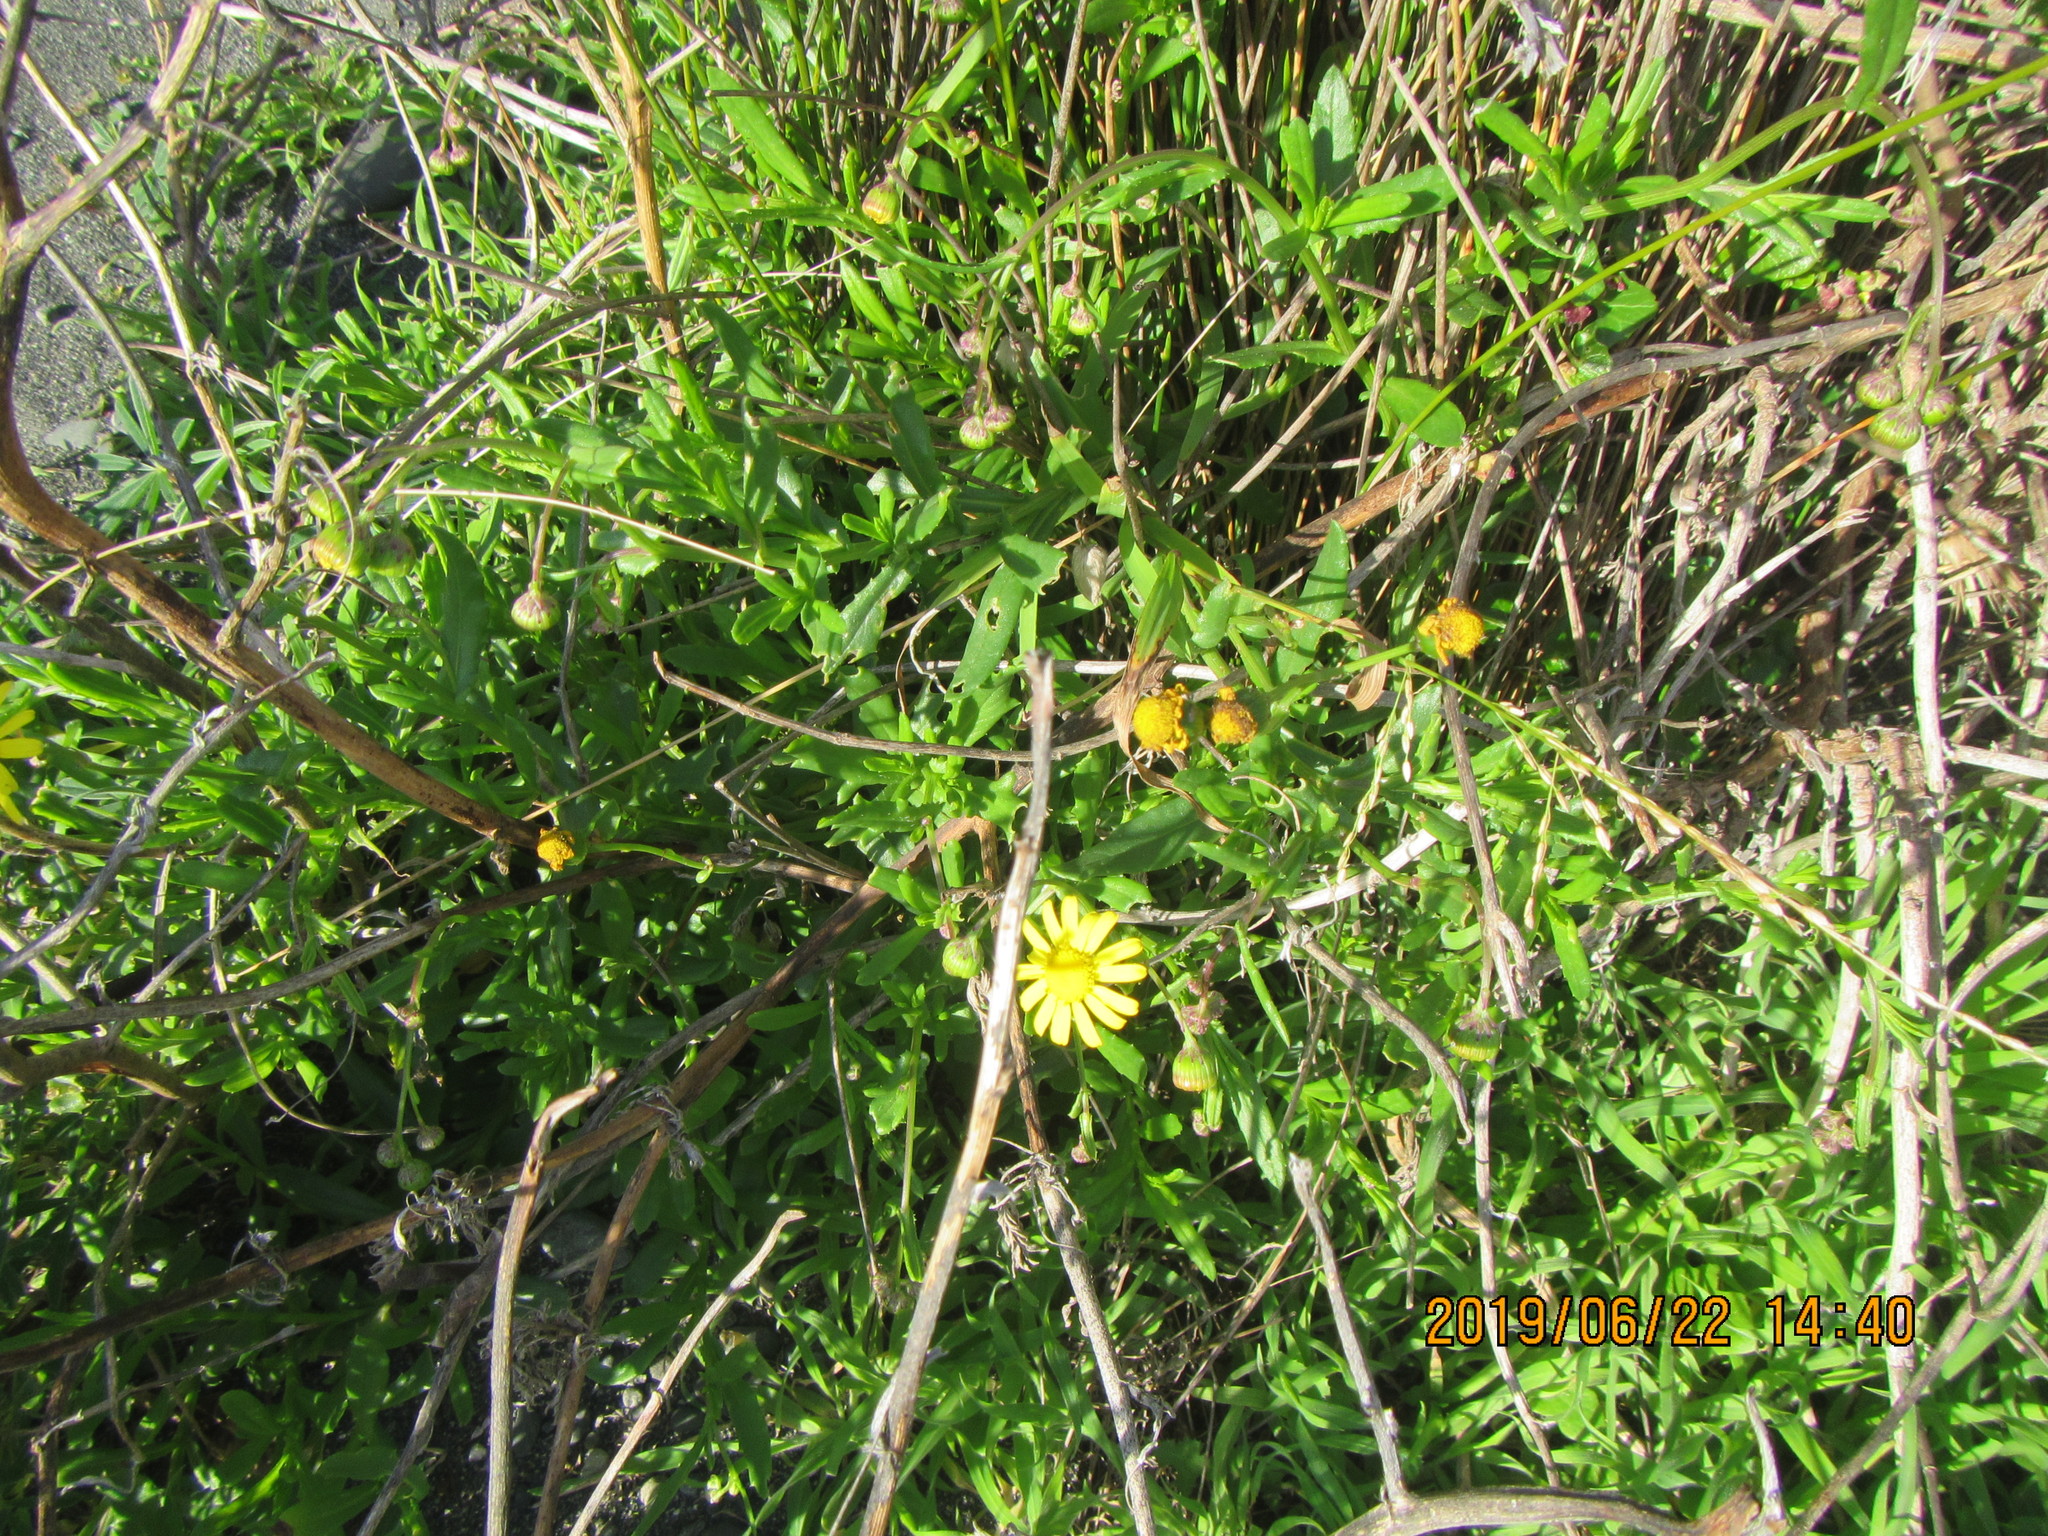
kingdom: Plantae
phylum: Tracheophyta
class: Magnoliopsida
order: Asterales
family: Asteraceae
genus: Senecio
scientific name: Senecio skirrhodon
